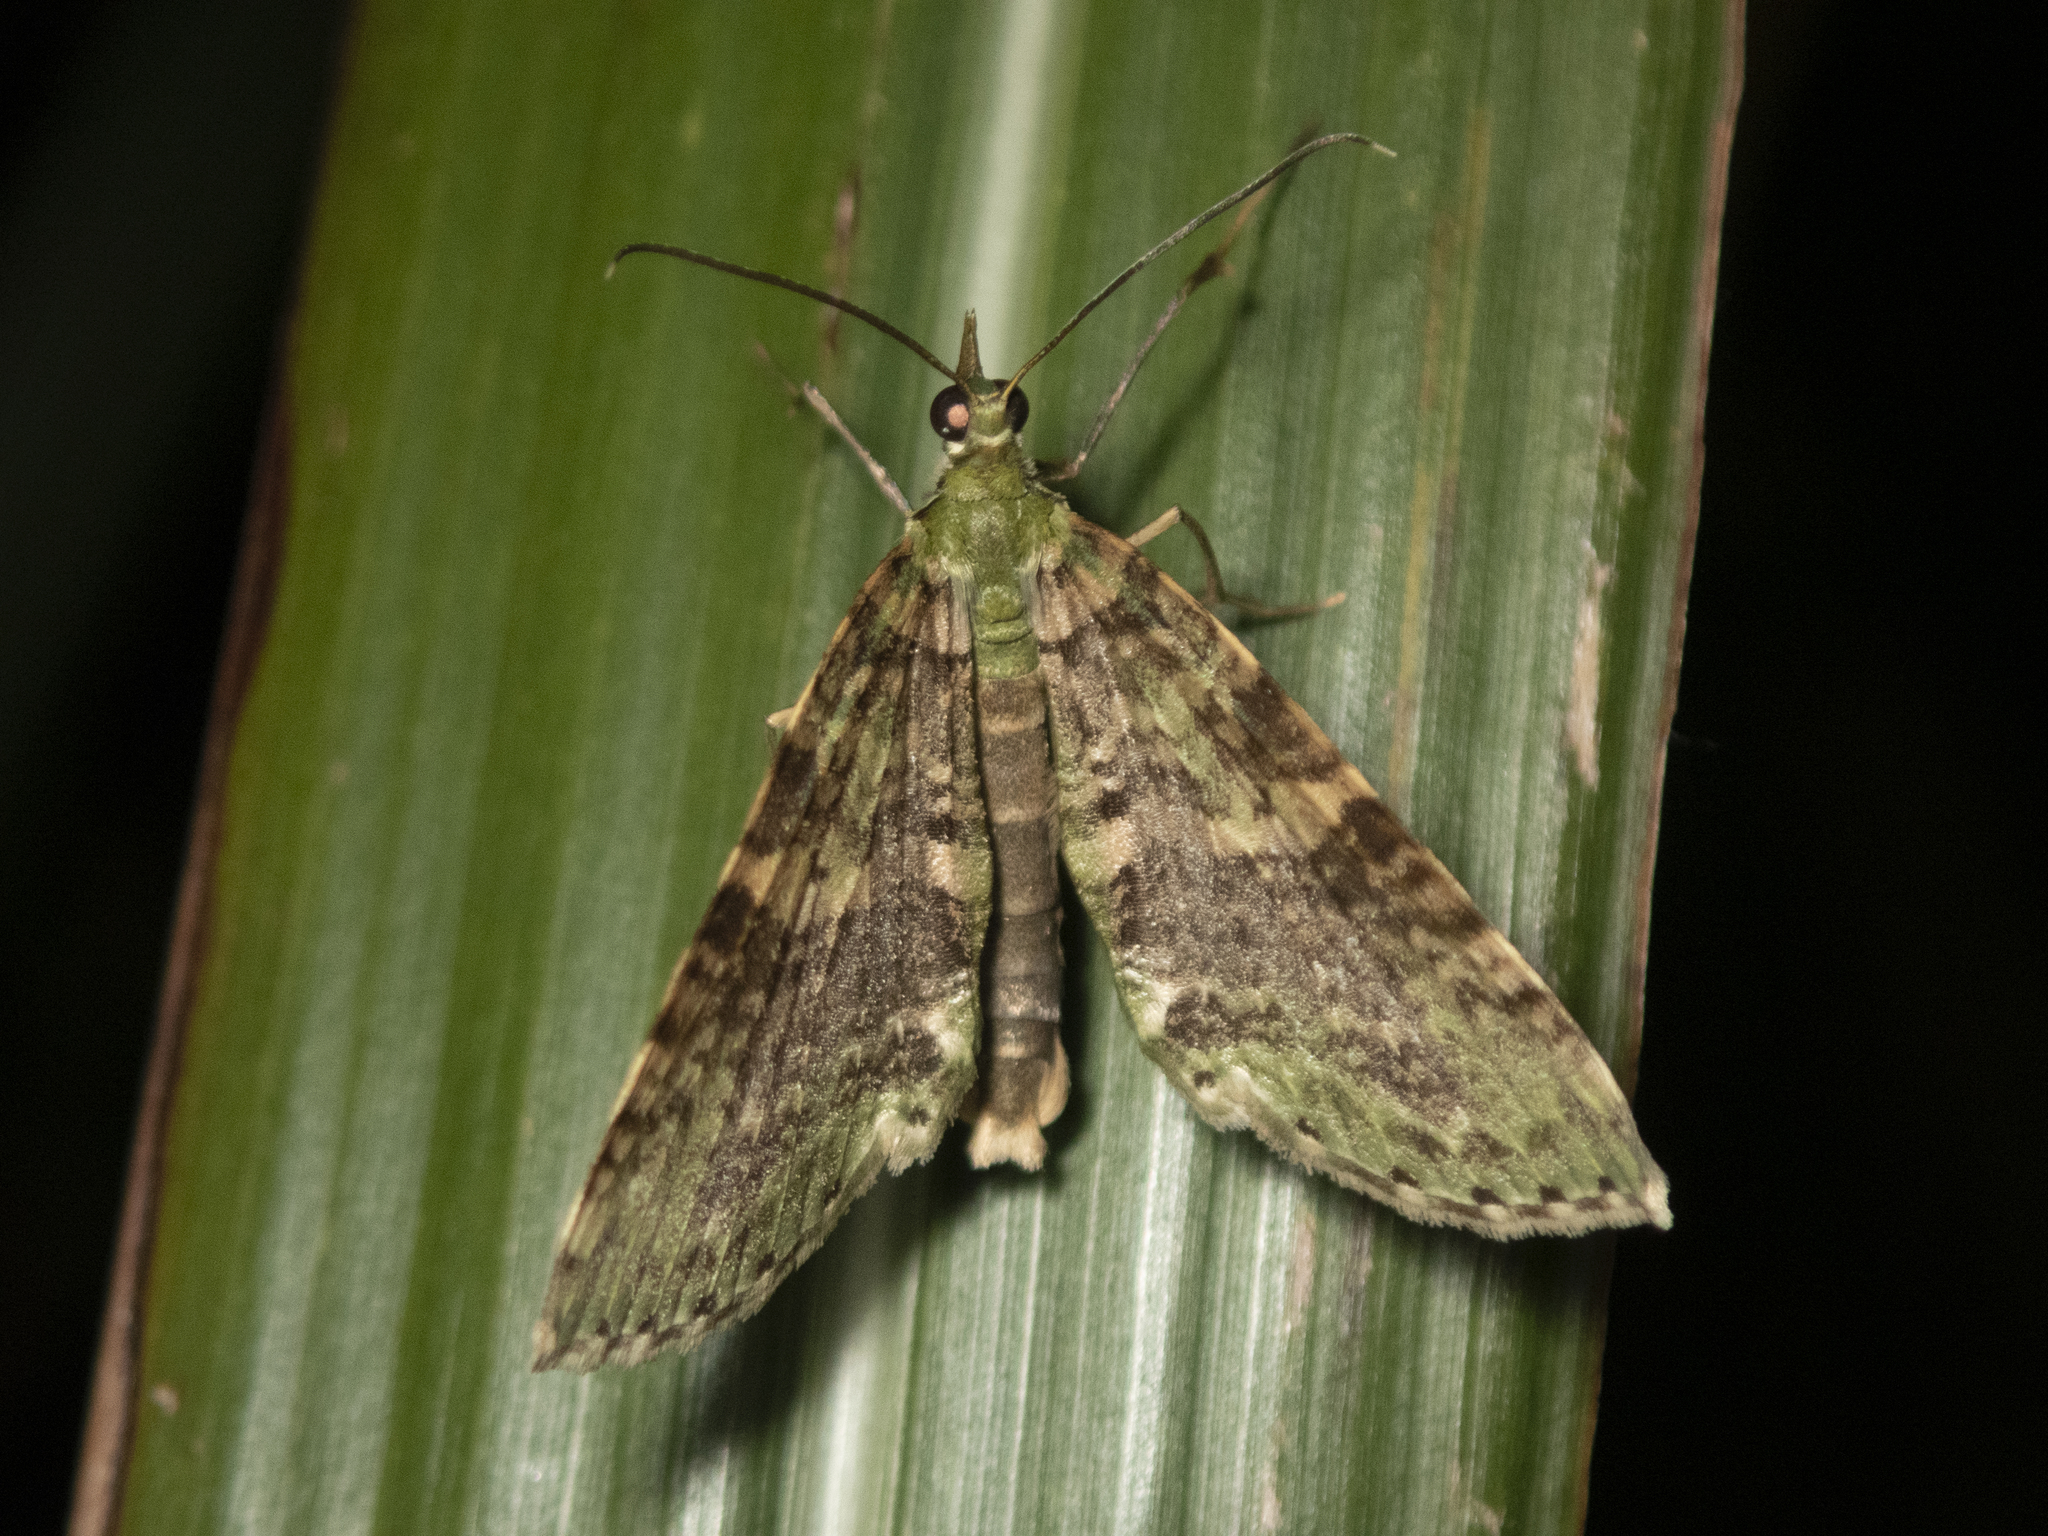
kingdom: Animalia
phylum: Arthropoda
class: Insecta
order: Lepidoptera
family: Geometridae
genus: Sauris
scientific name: Sauris
